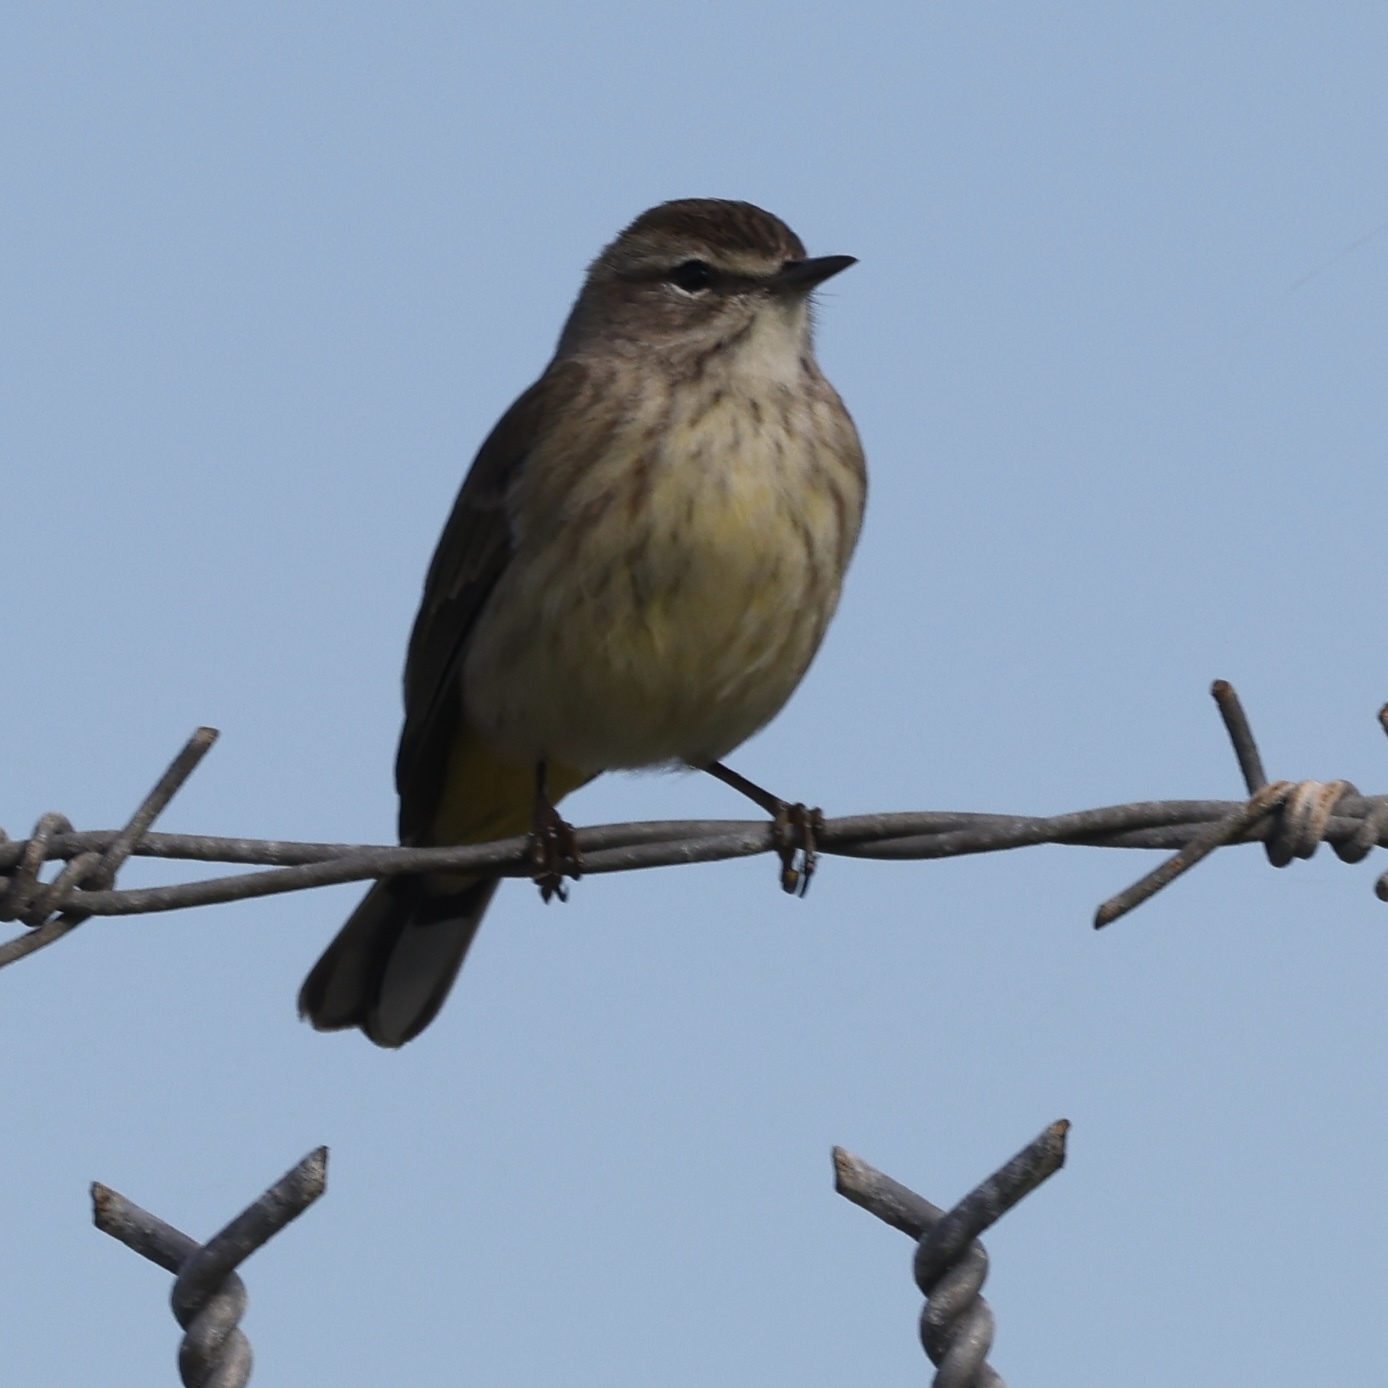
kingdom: Animalia
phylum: Chordata
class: Aves
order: Passeriformes
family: Parulidae
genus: Setophaga
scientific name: Setophaga palmarum
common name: Palm warbler
